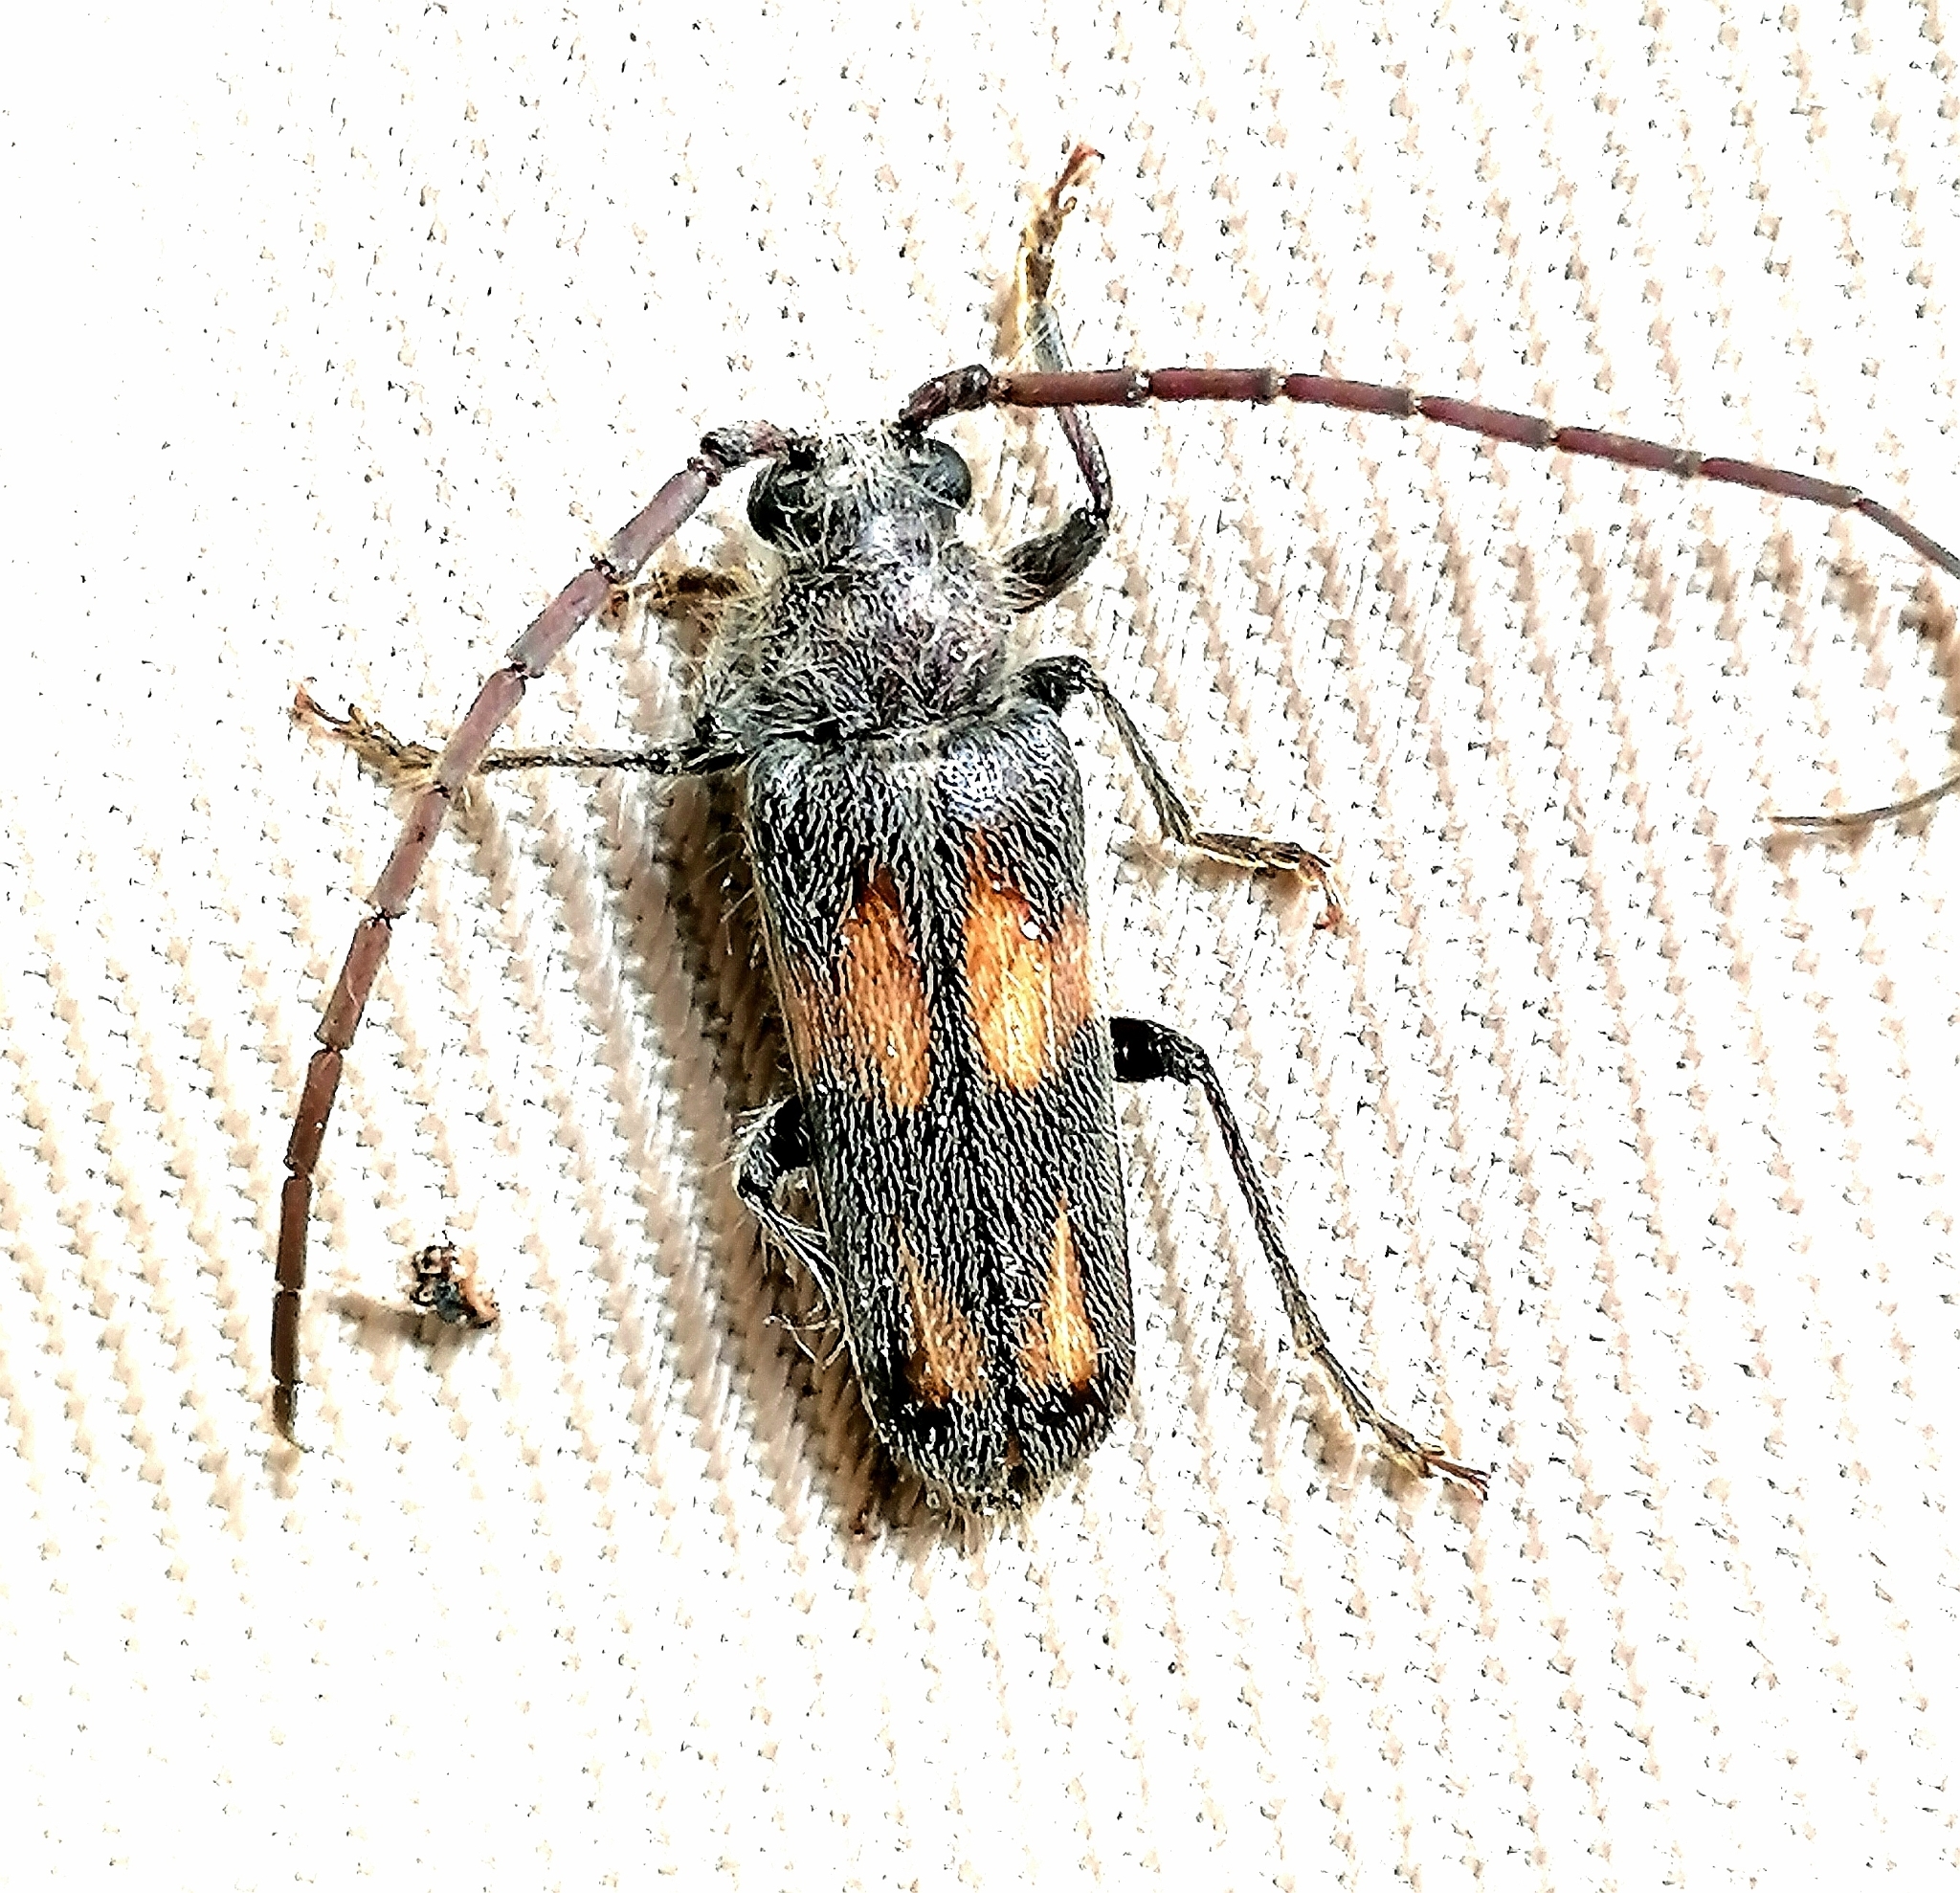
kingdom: Animalia
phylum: Arthropoda
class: Insecta
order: Coleoptera
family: Cerambycidae
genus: Crinarnoldius
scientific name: Crinarnoldius maculatus
